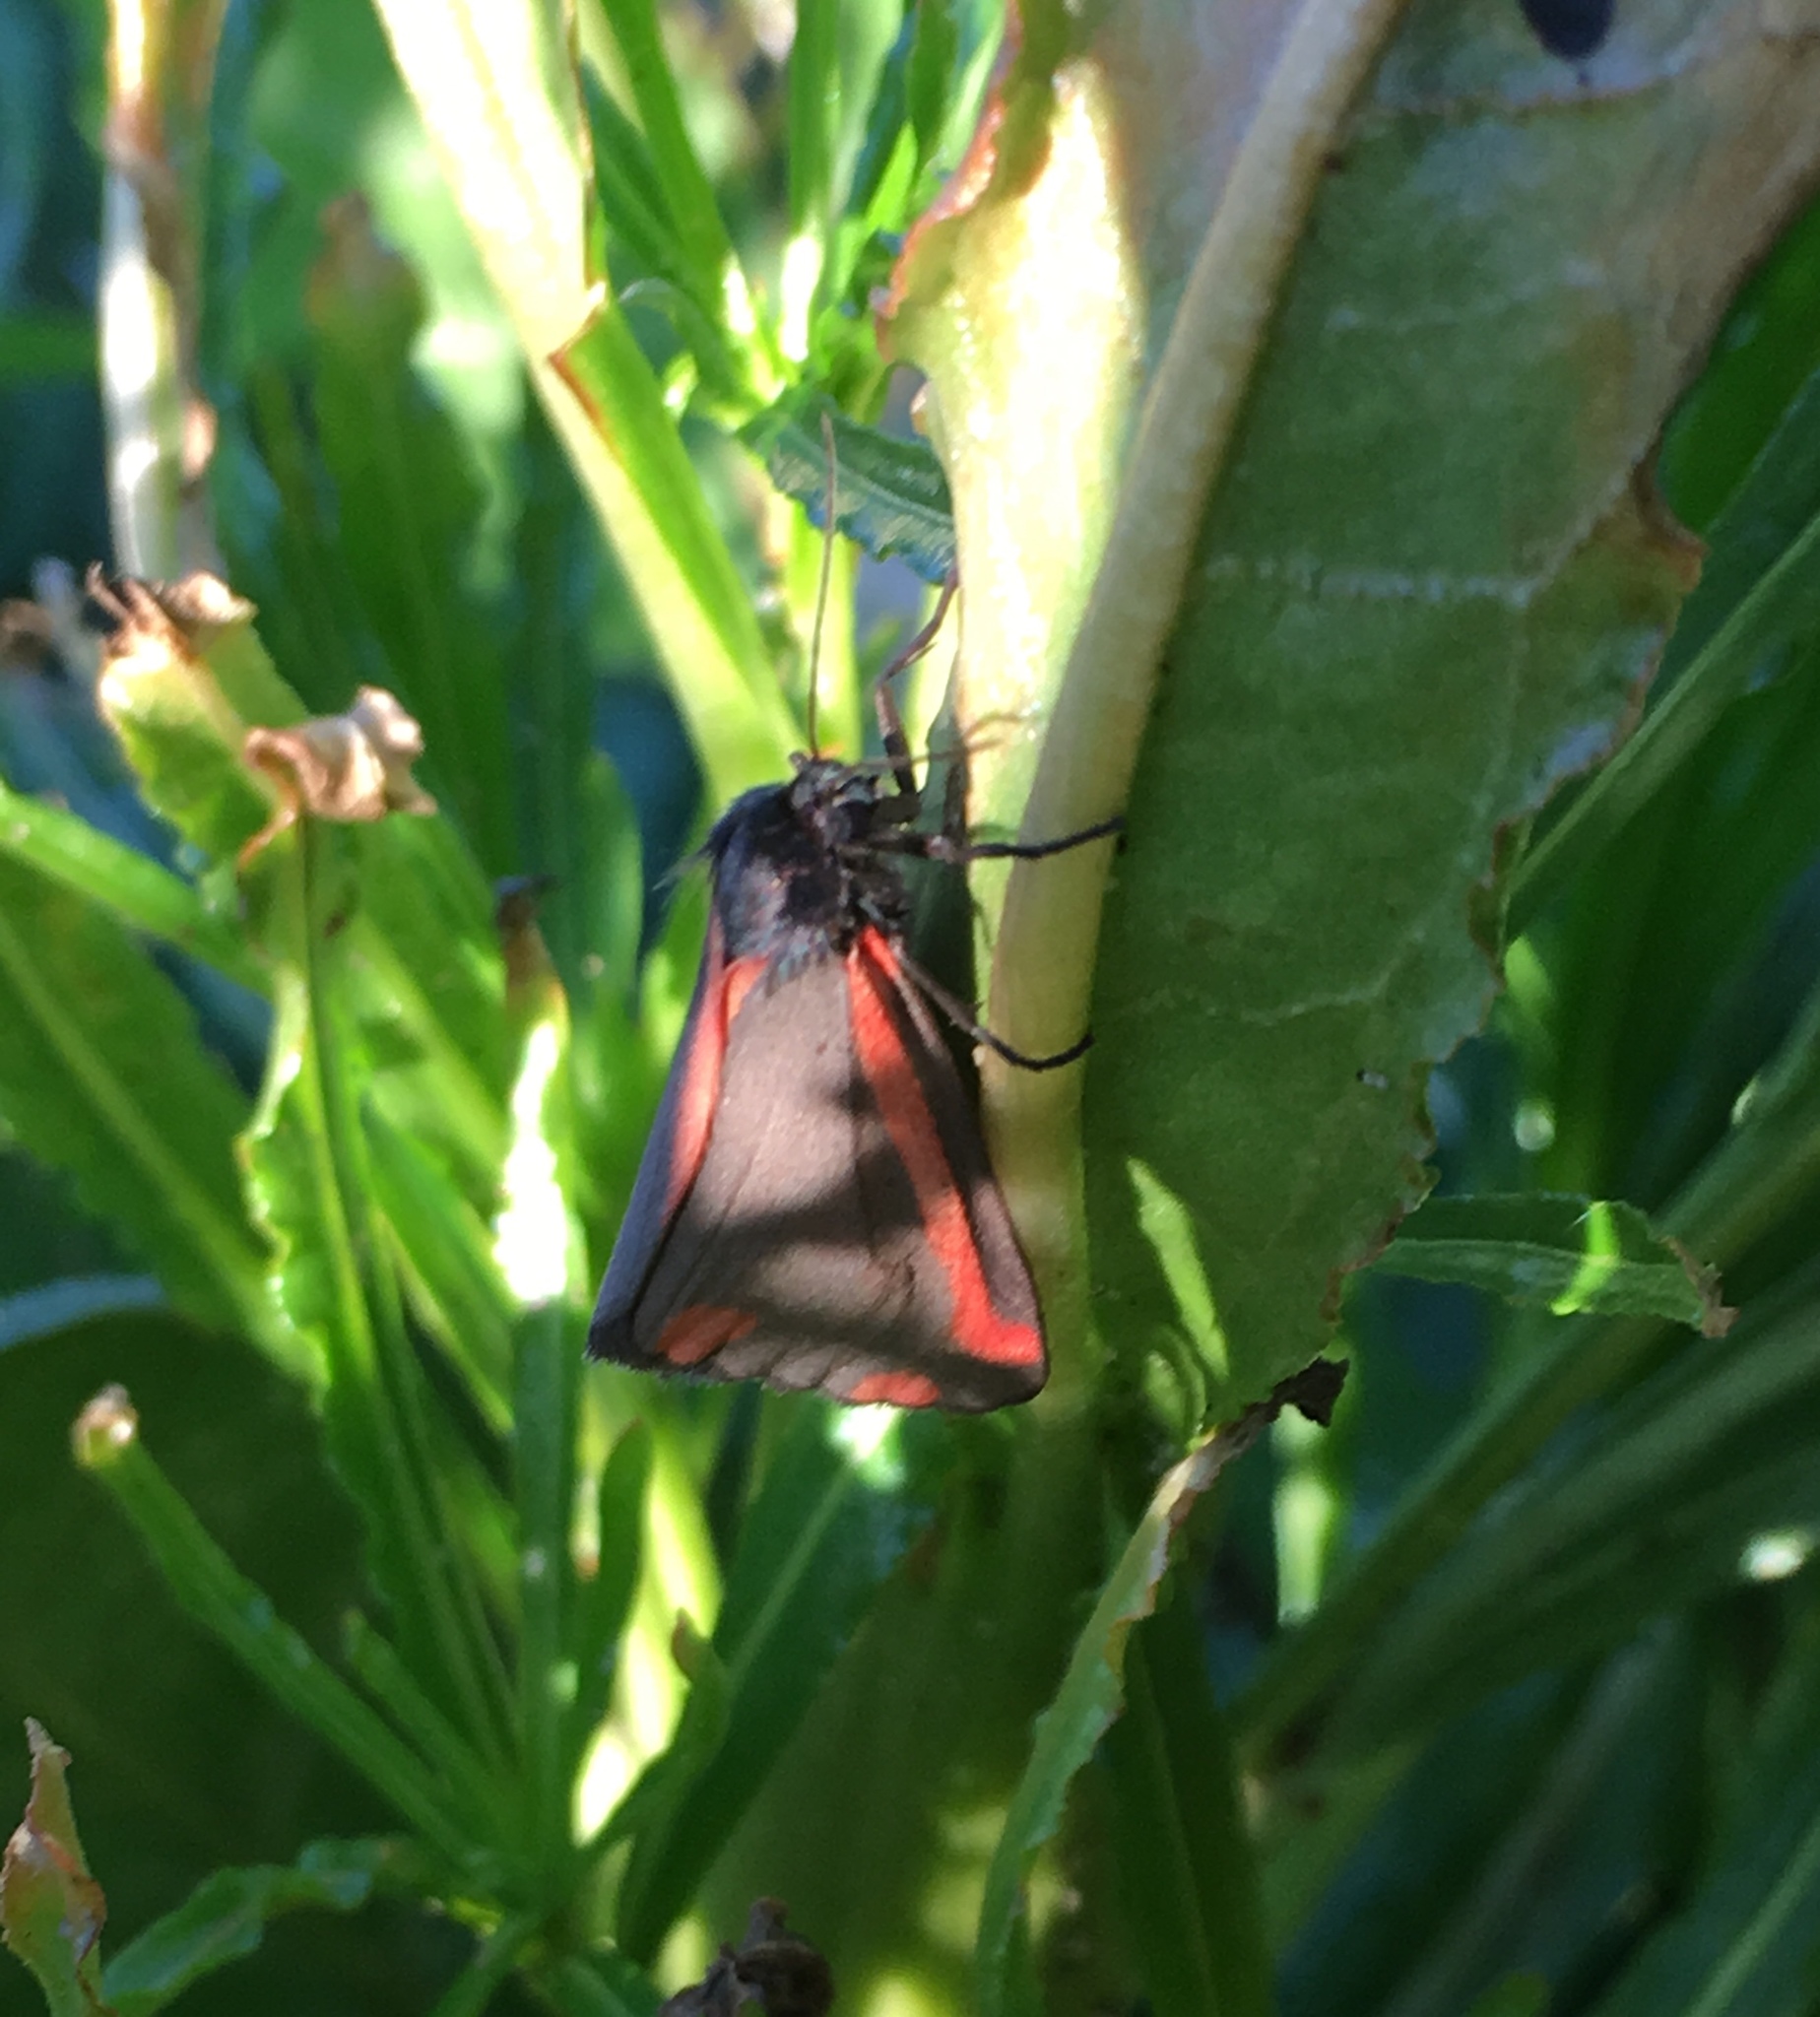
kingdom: Animalia
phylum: Arthropoda
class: Insecta
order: Lepidoptera
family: Erebidae
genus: Tyria
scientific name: Tyria jacobaeae
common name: Cinnabar
